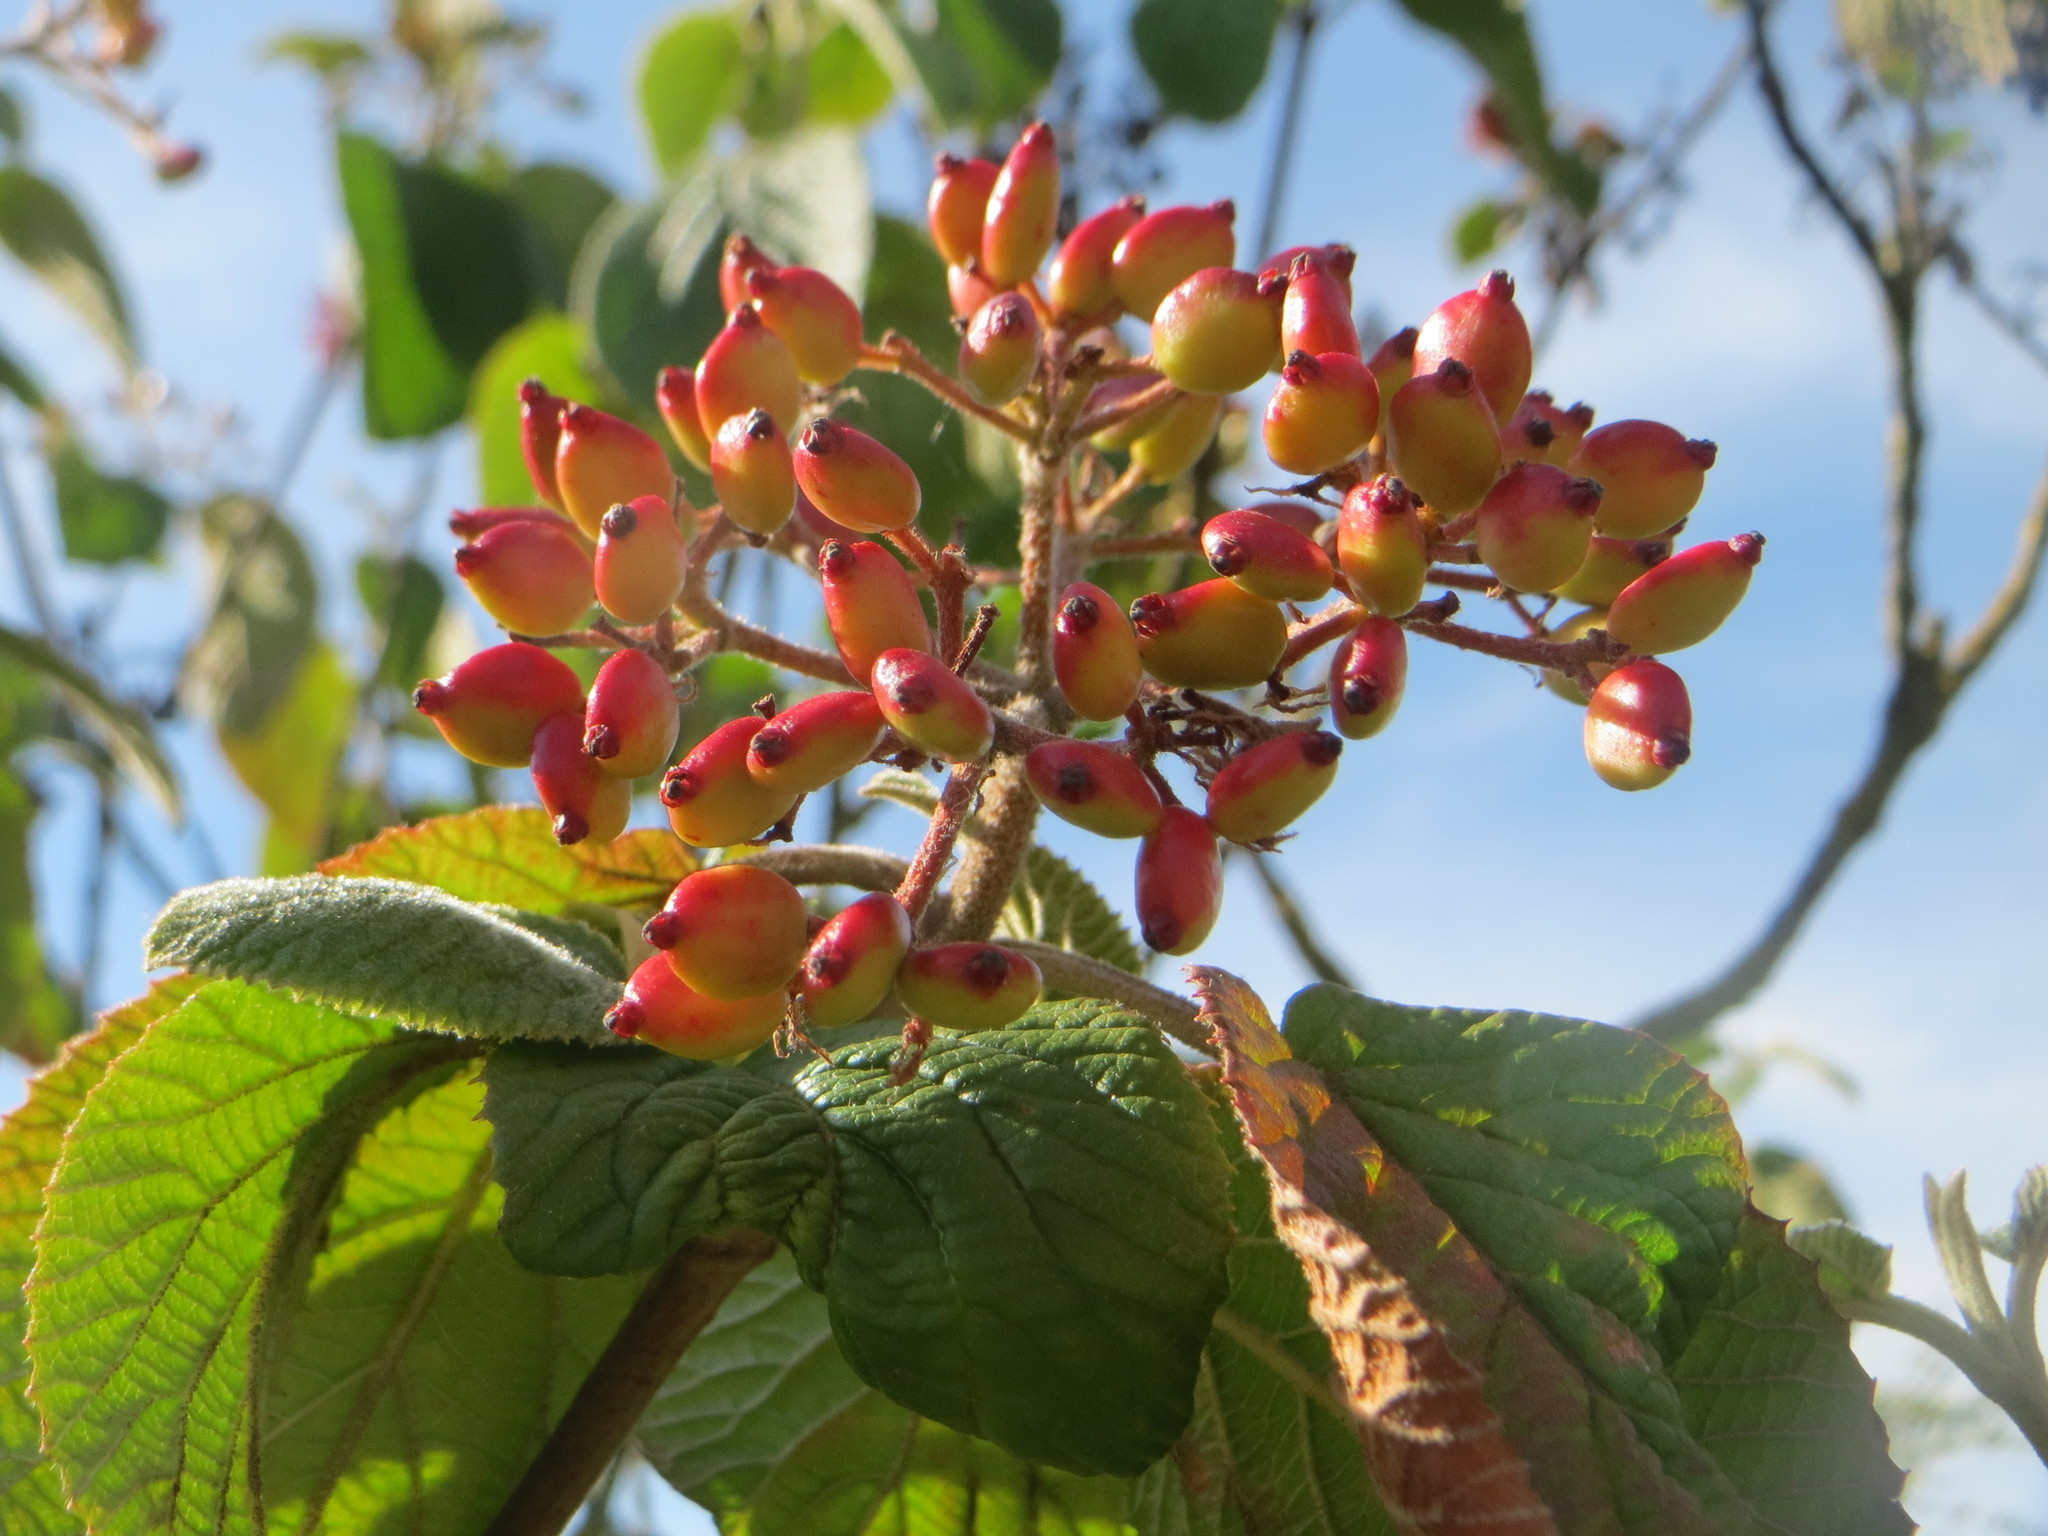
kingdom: Plantae
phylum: Tracheophyta
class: Magnoliopsida
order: Dipsacales
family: Viburnaceae
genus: Viburnum
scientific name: Viburnum lantana
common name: Wayfaring tree
